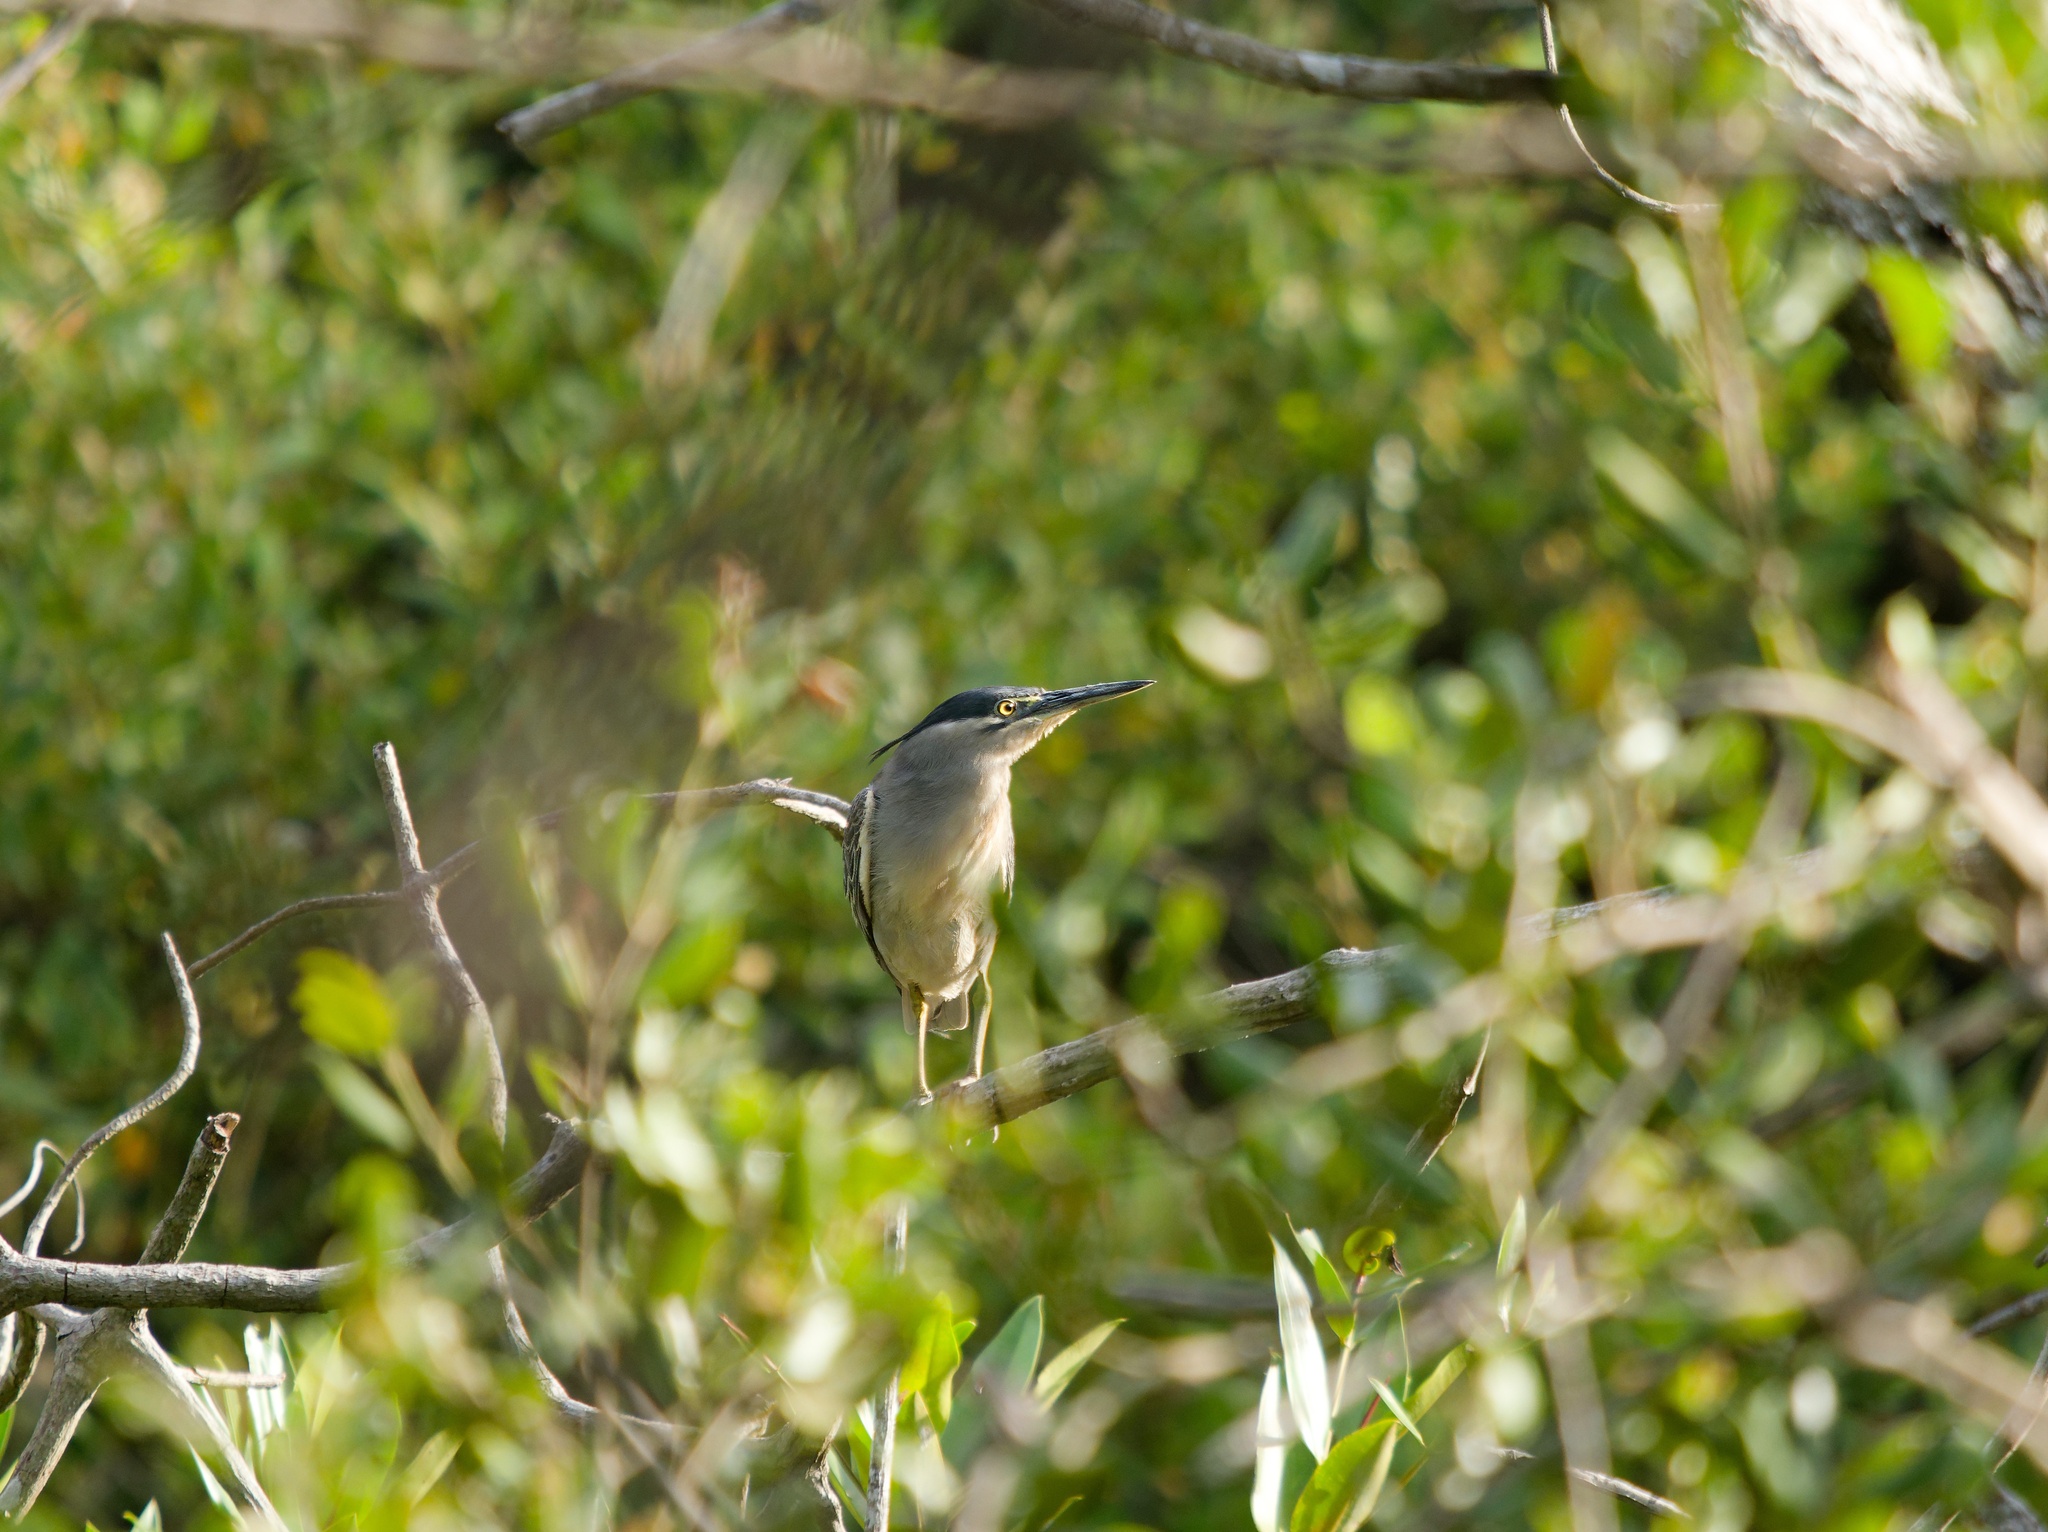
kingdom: Animalia
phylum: Chordata
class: Aves
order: Pelecaniformes
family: Ardeidae
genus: Butorides
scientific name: Butorides striata
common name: Striated heron
